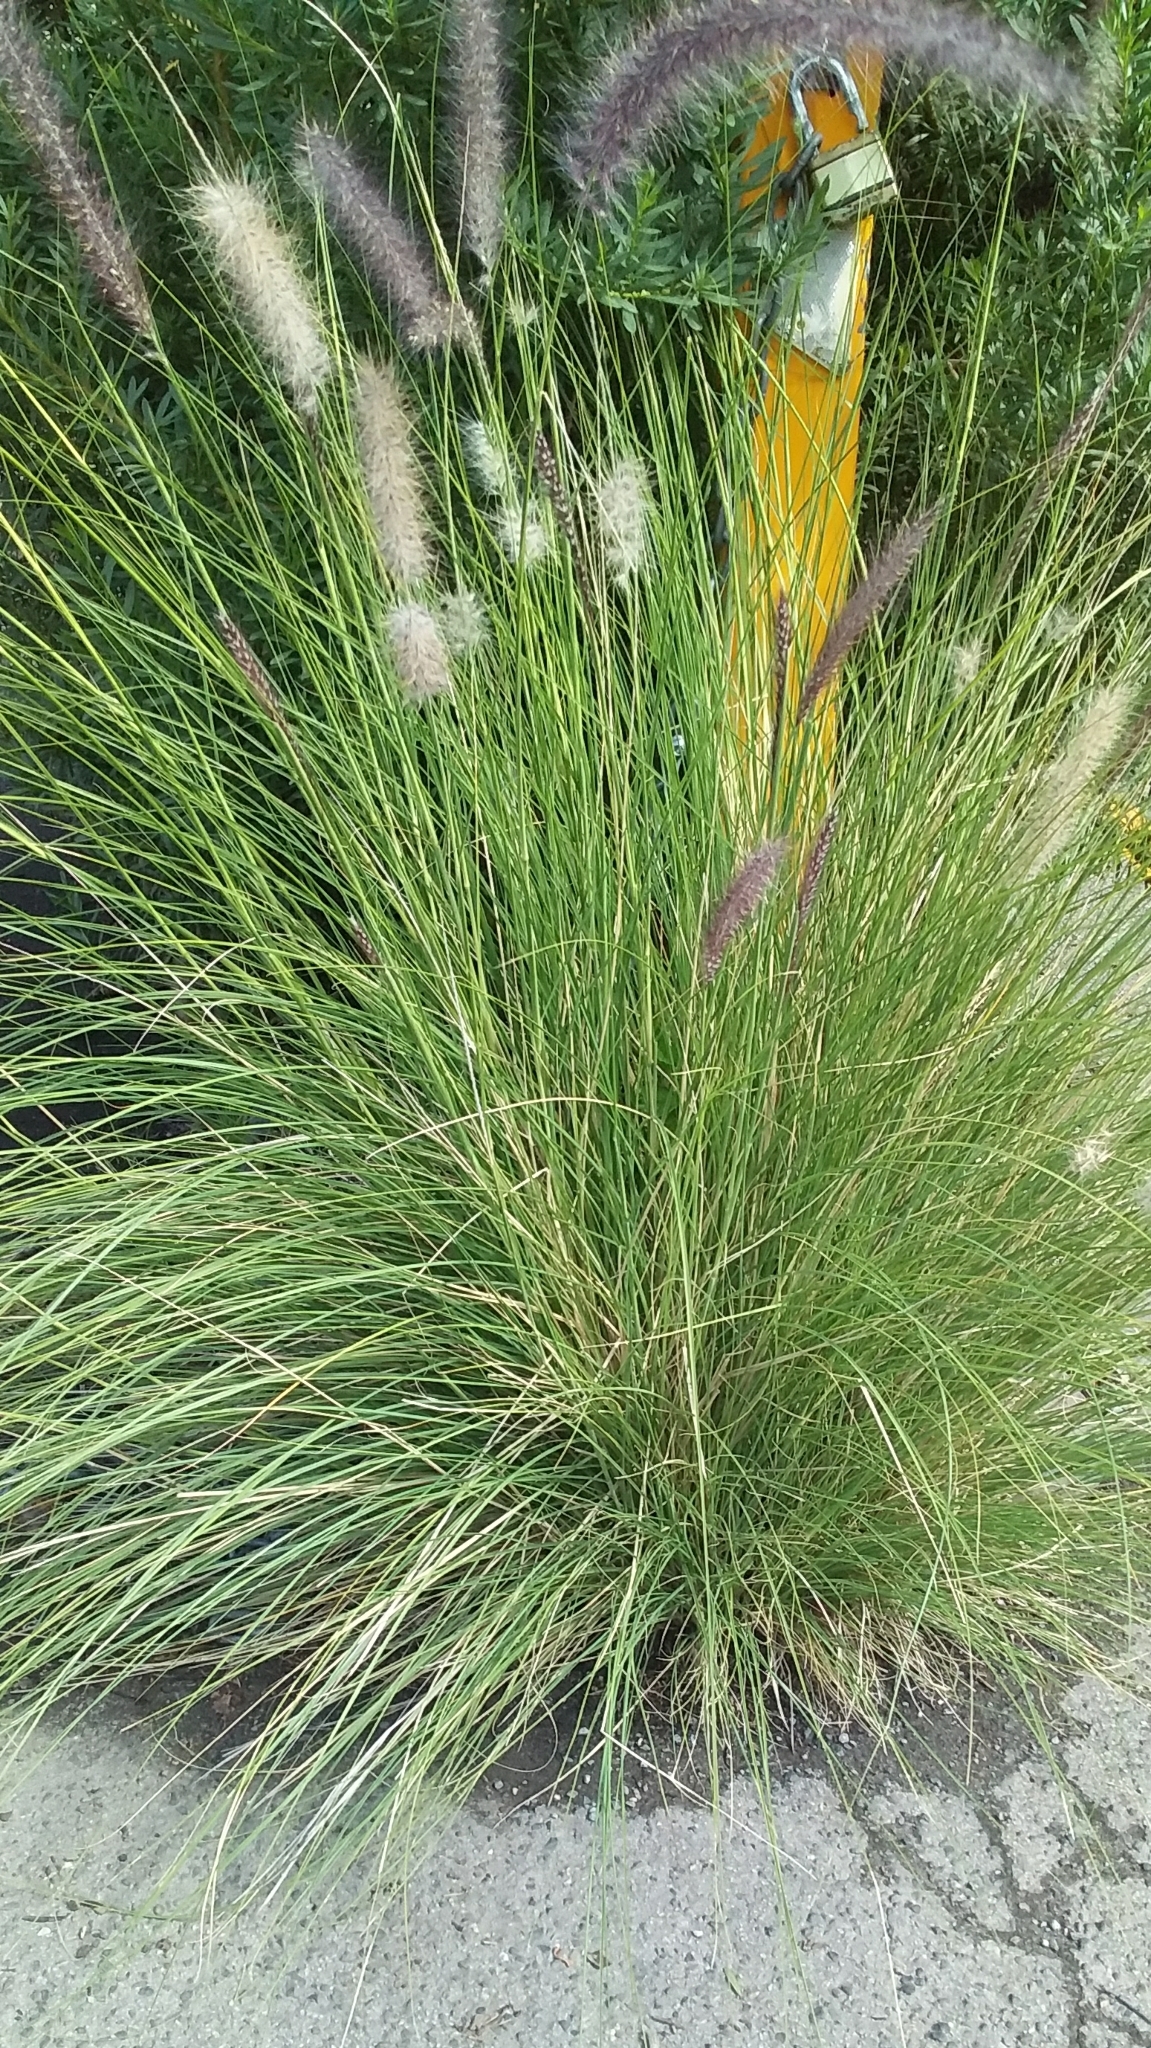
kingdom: Plantae
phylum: Tracheophyta
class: Liliopsida
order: Poales
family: Poaceae
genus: Cenchrus
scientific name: Cenchrus setaceus
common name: Crimson fountaingrass
